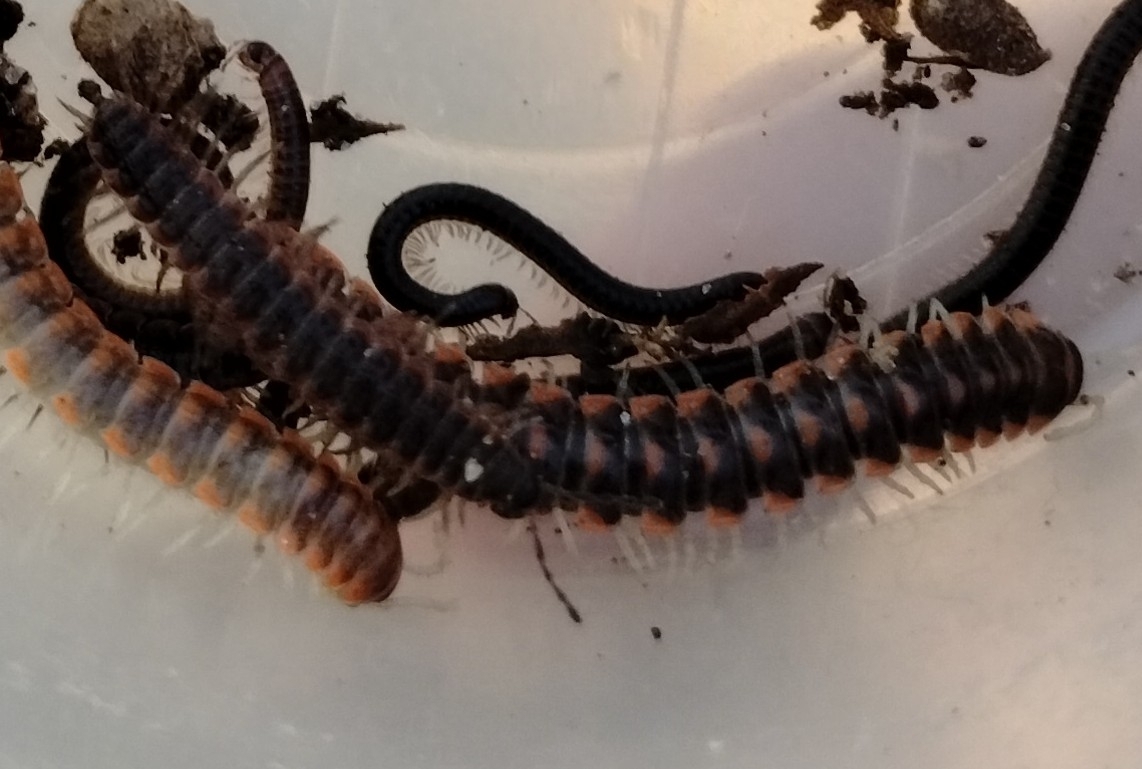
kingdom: Animalia
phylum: Arthropoda
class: Diplopoda
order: Polydesmida
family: Xystodesmidae
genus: Euryurus
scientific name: Euryurus maculatus
